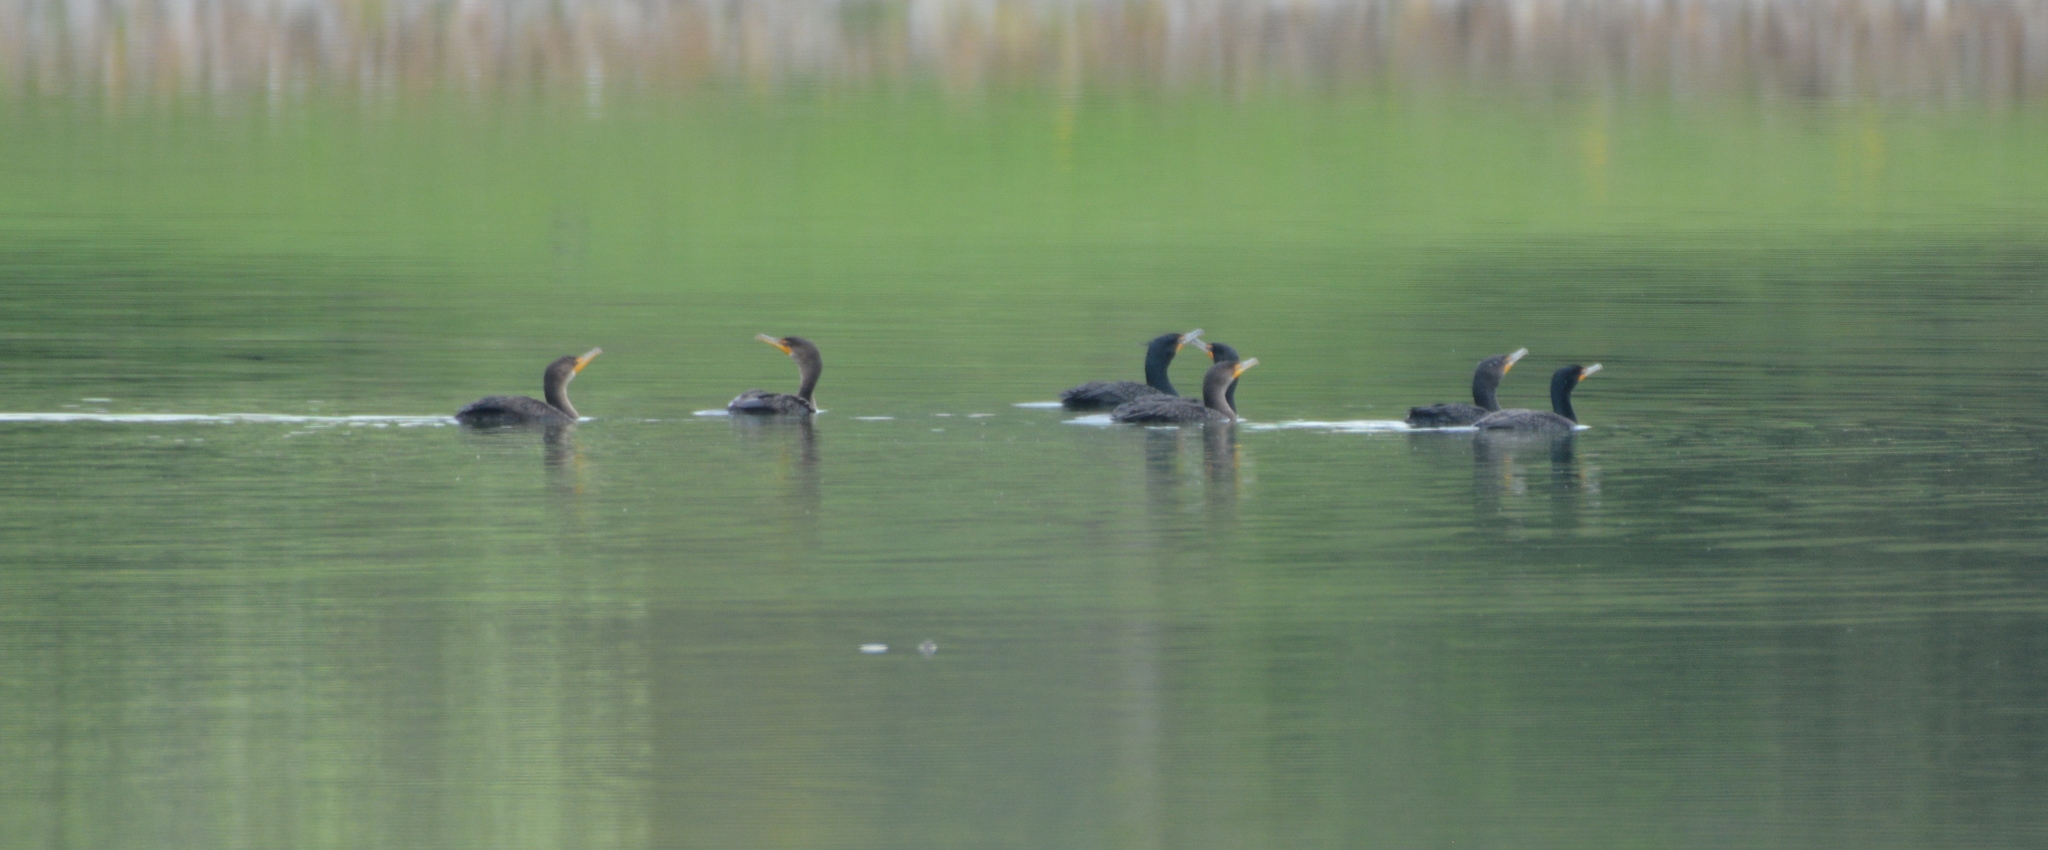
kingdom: Animalia
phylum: Chordata
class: Aves
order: Suliformes
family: Phalacrocoracidae
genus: Phalacrocorax
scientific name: Phalacrocorax auritus
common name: Double-crested cormorant
